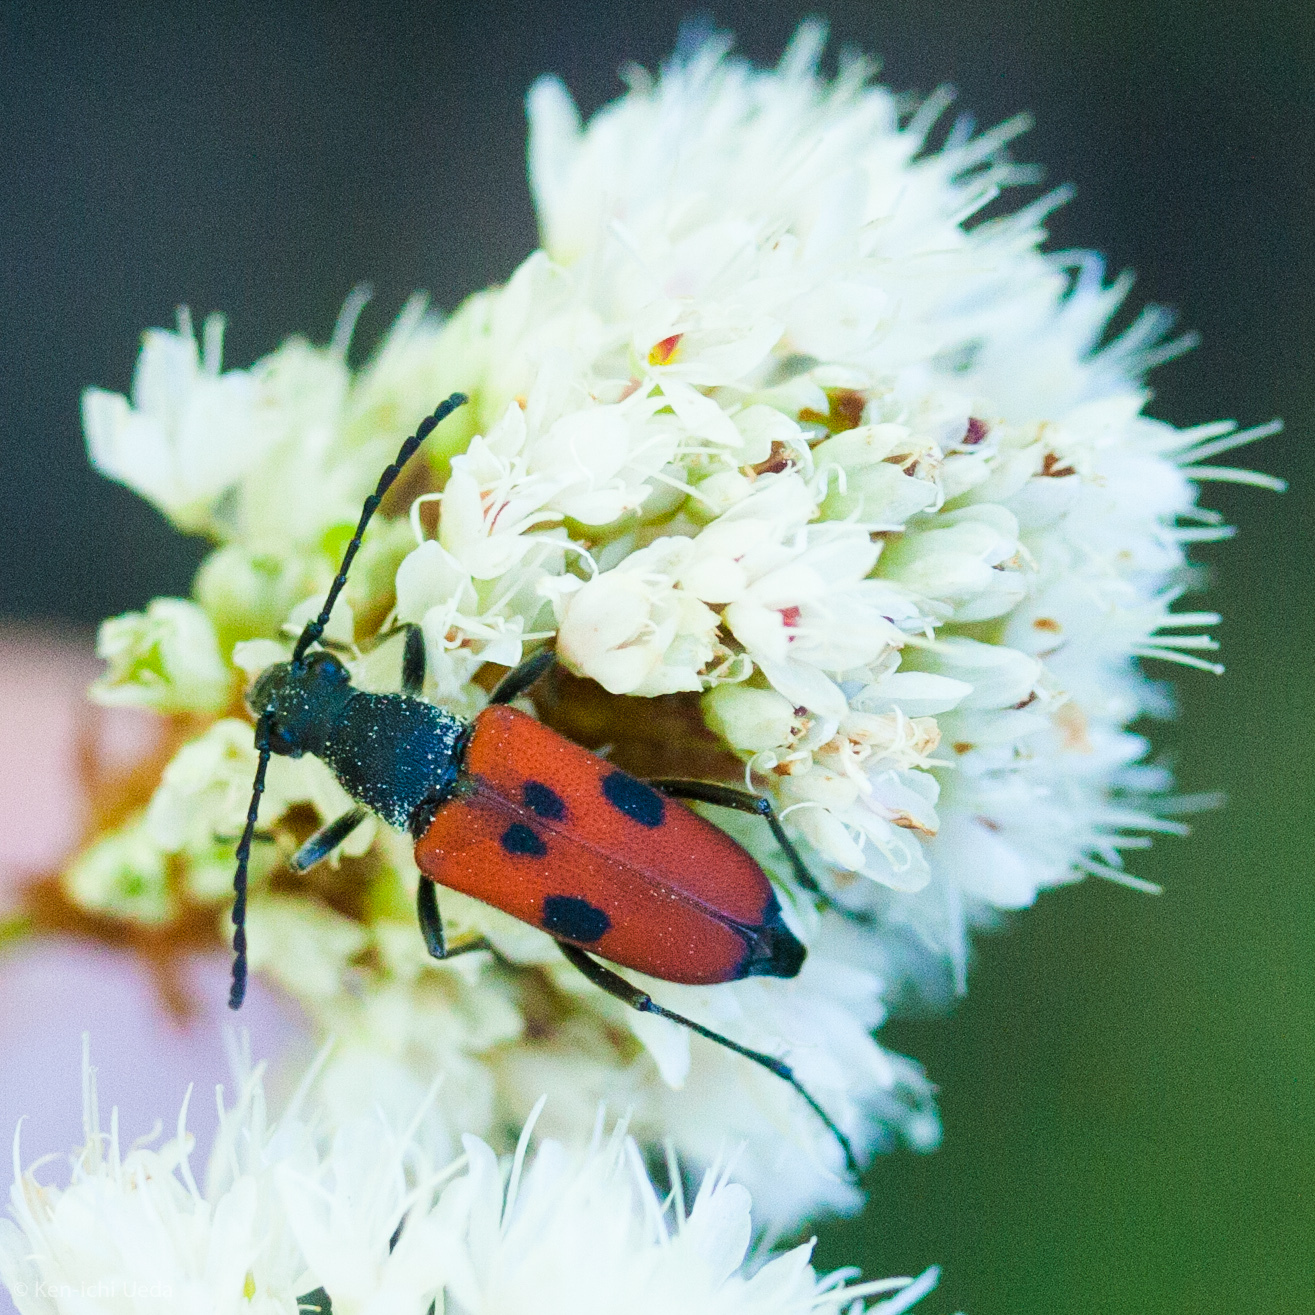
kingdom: Animalia
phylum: Arthropoda
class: Insecta
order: Coleoptera
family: Cerambycidae
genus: Anastrangalia
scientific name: Anastrangalia laetifica
